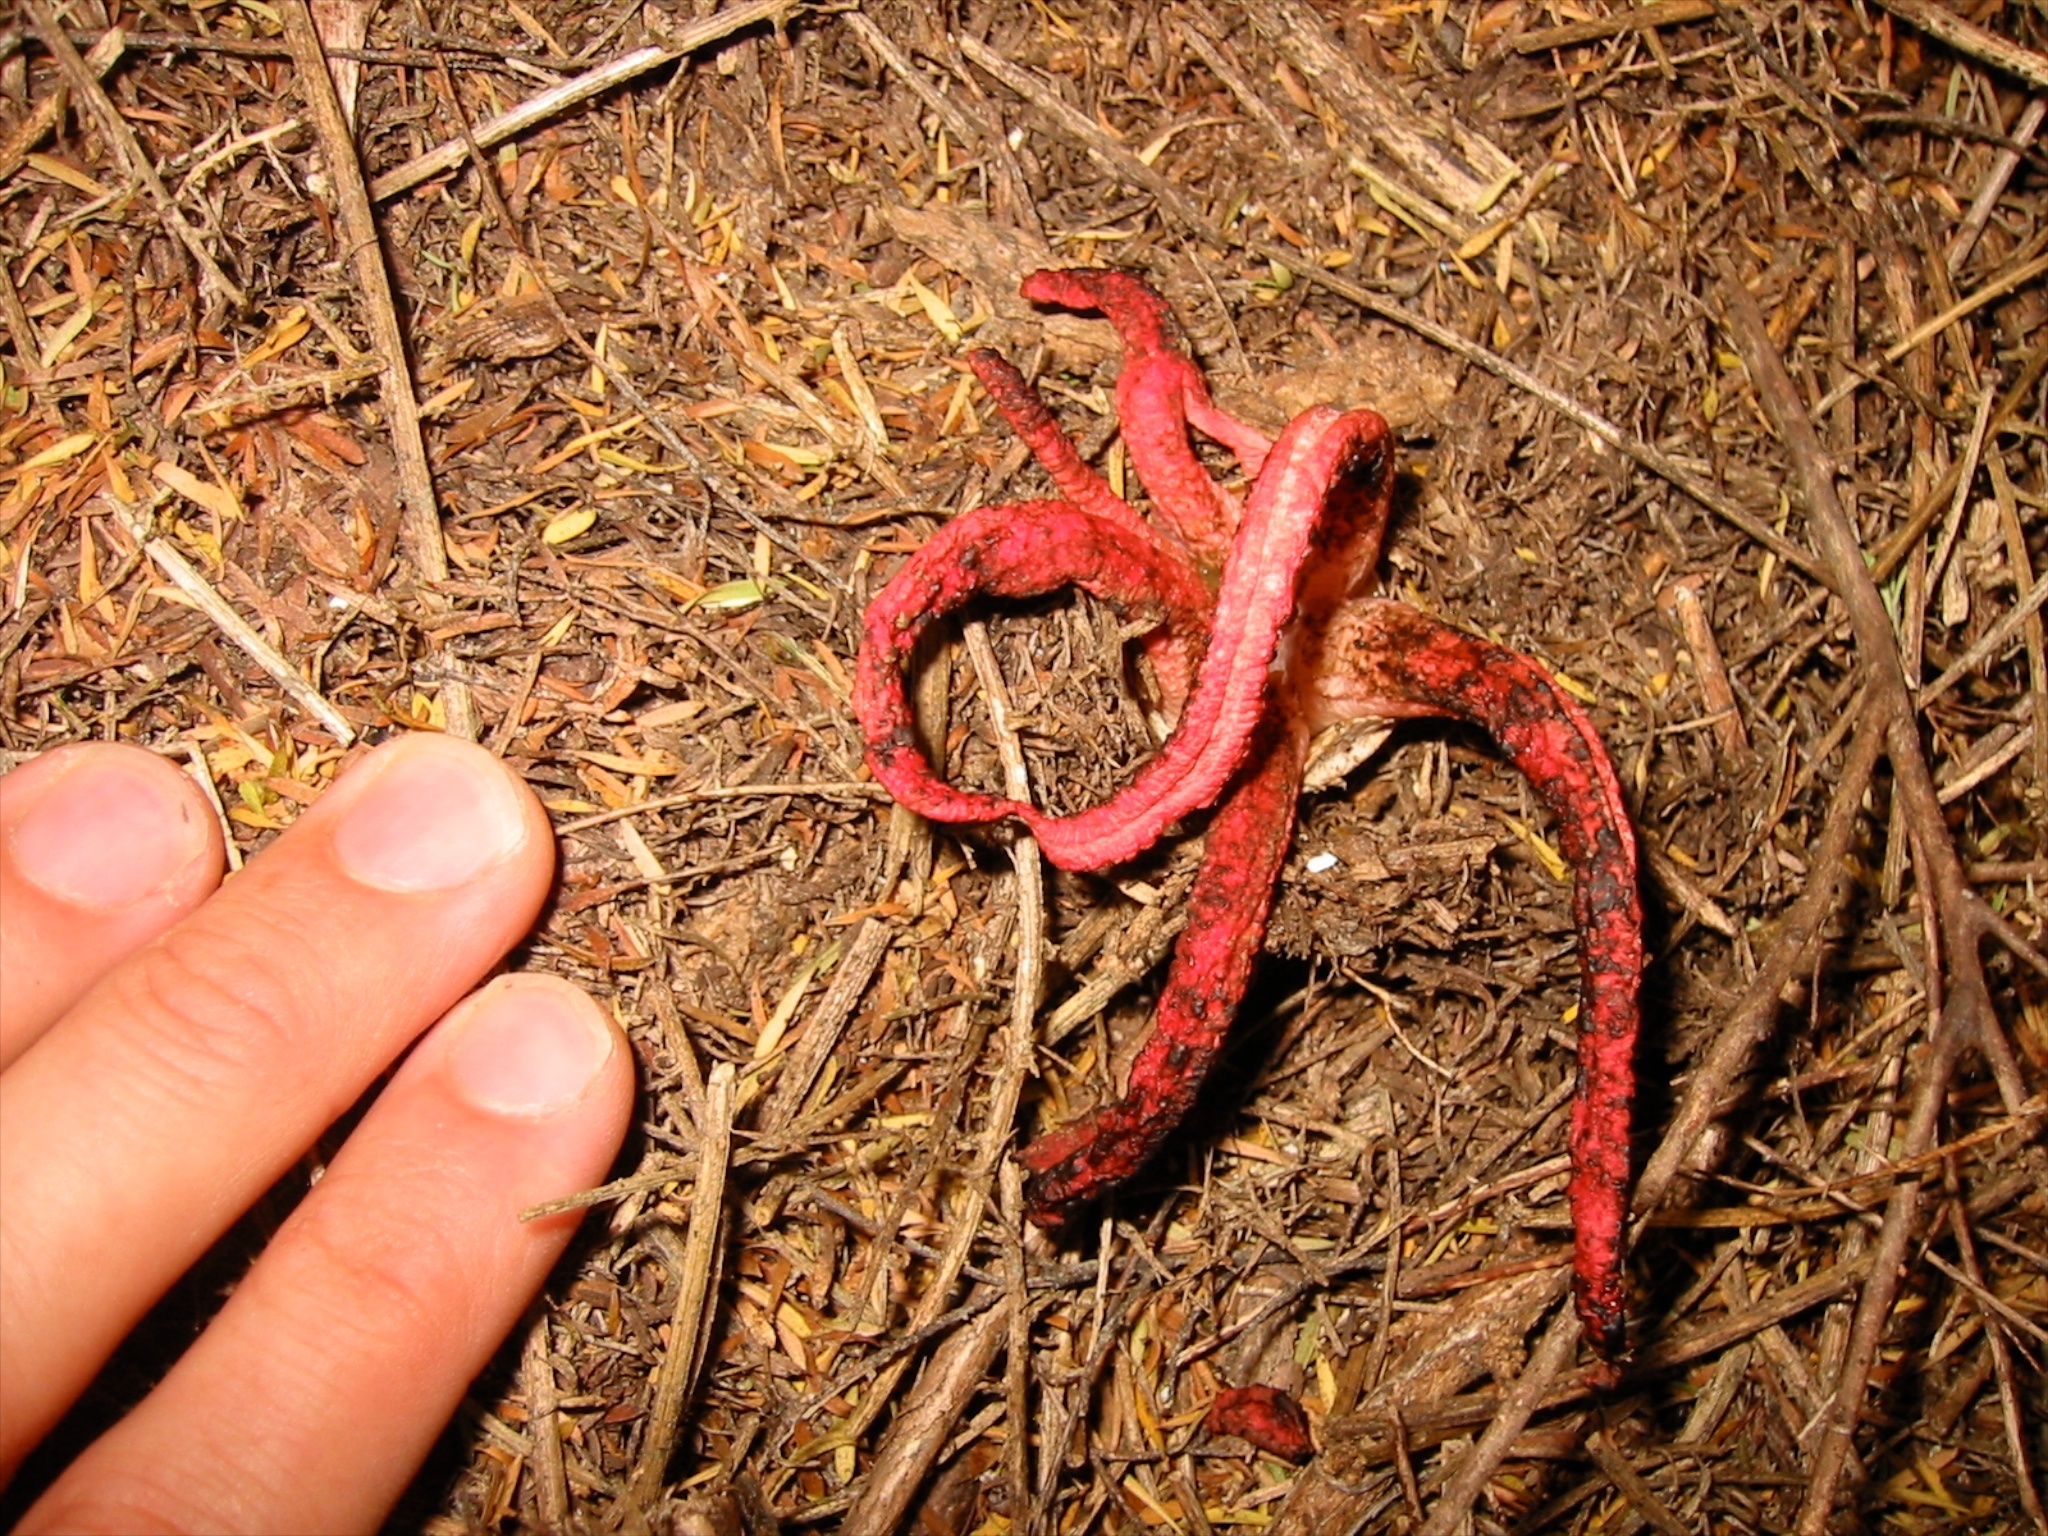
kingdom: Fungi
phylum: Basidiomycota
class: Agaricomycetes
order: Phallales
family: Phallaceae
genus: Clathrus
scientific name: Clathrus archeri
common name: Devil's fingers
